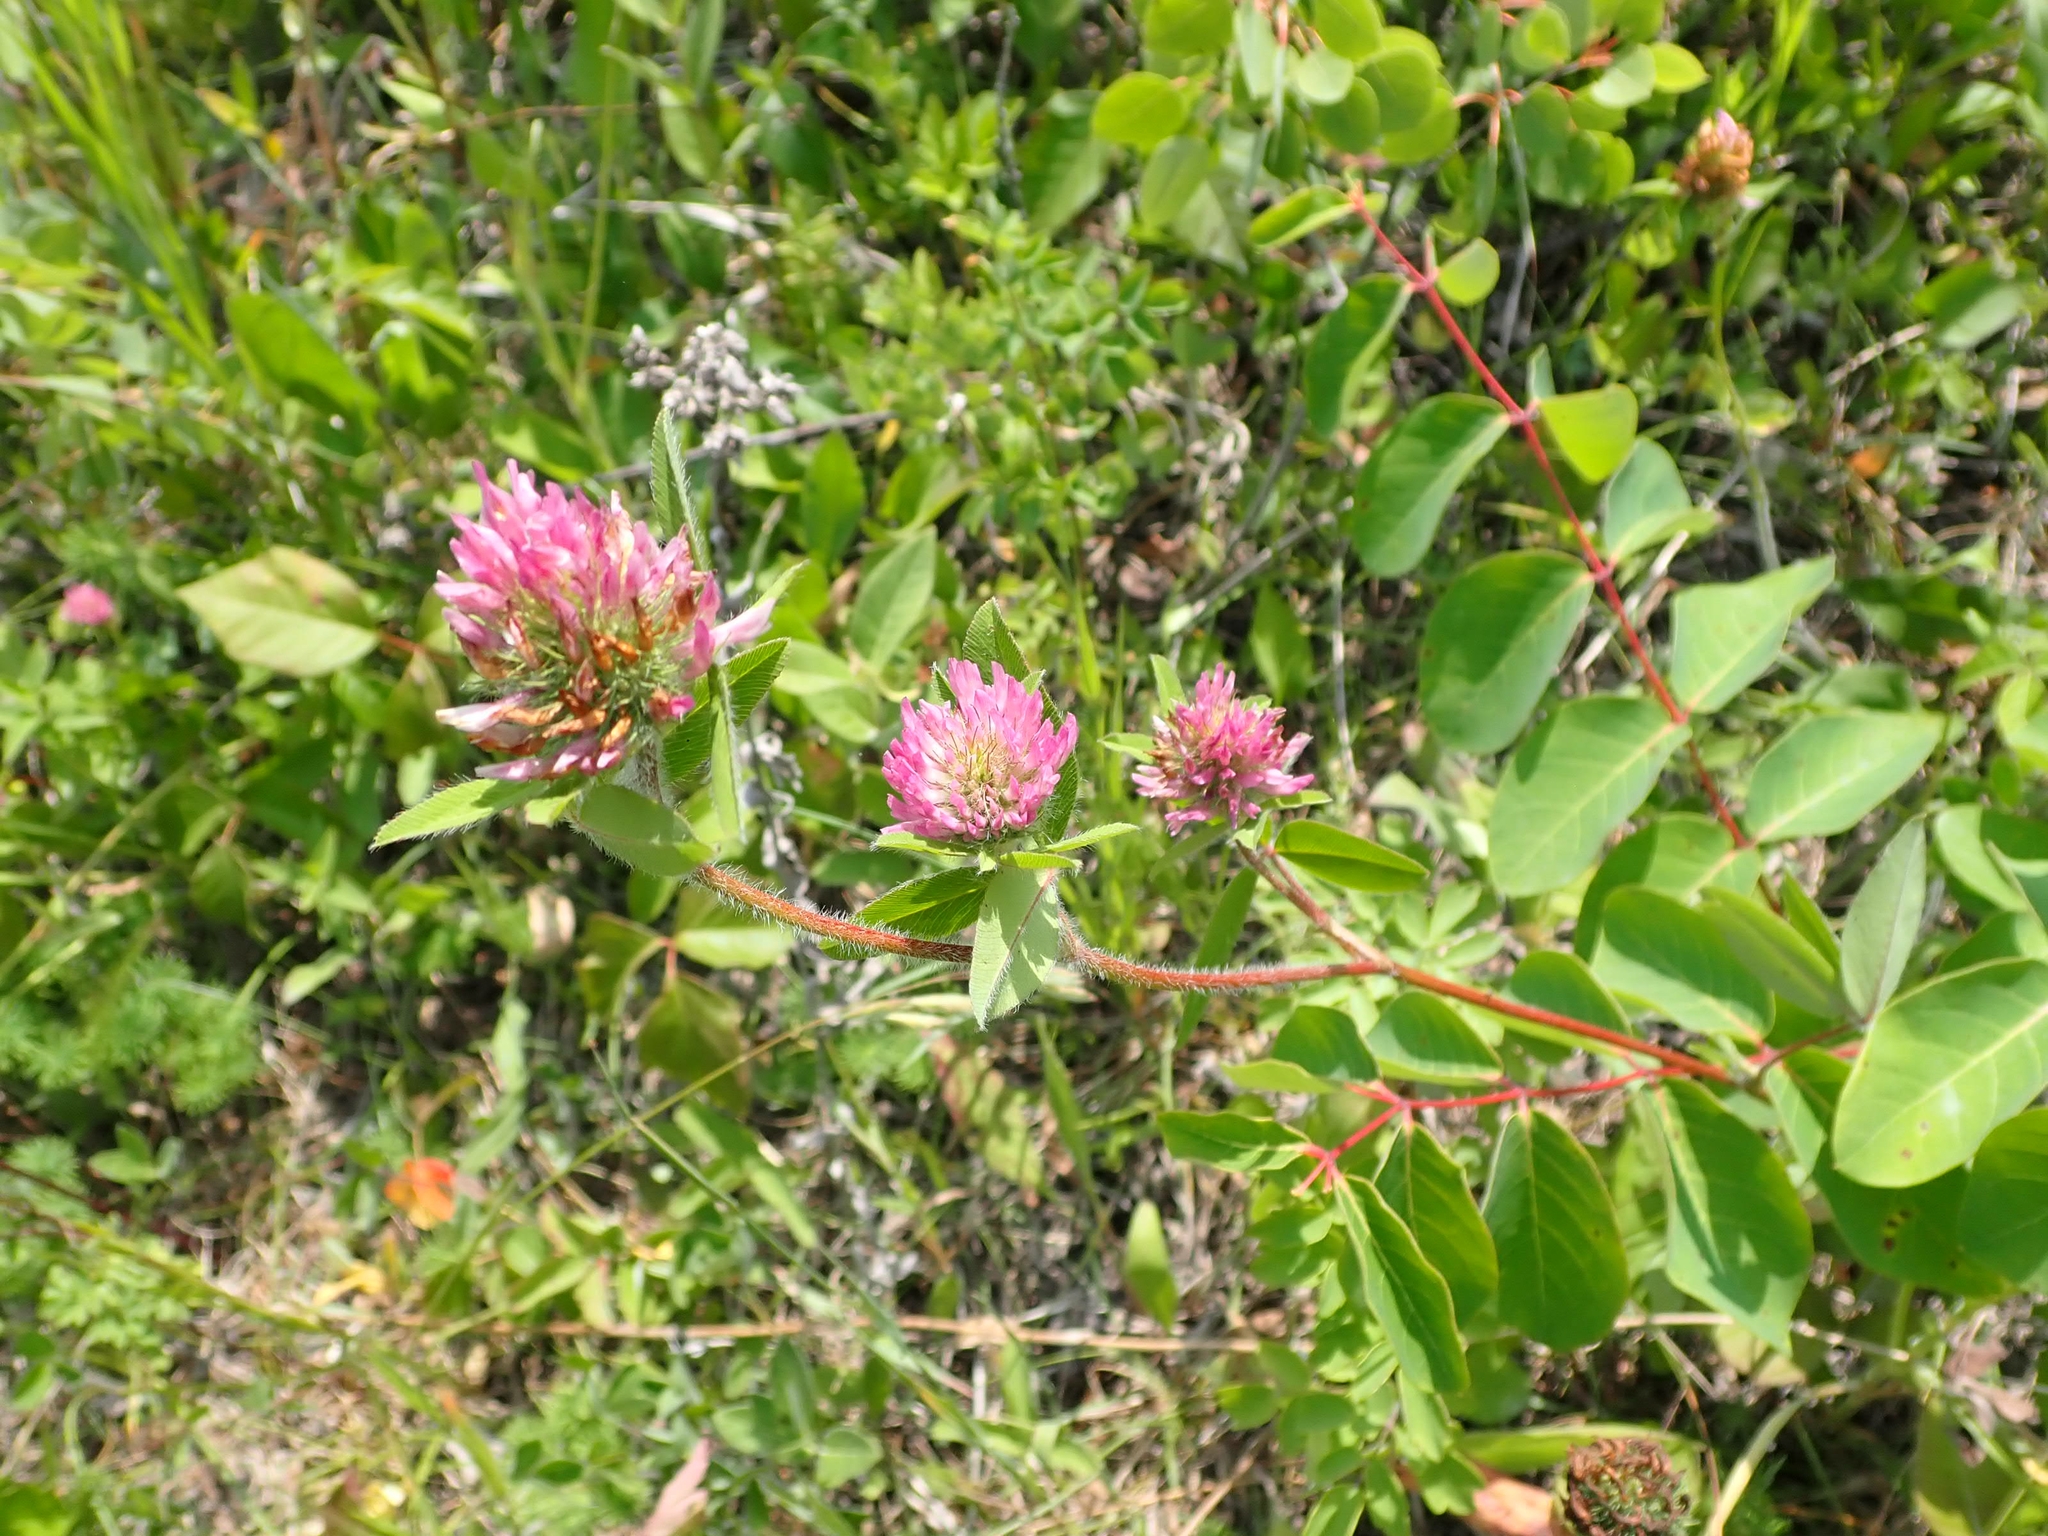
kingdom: Plantae
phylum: Tracheophyta
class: Magnoliopsida
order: Fabales
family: Fabaceae
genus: Trifolium
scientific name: Trifolium pratense
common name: Red clover
